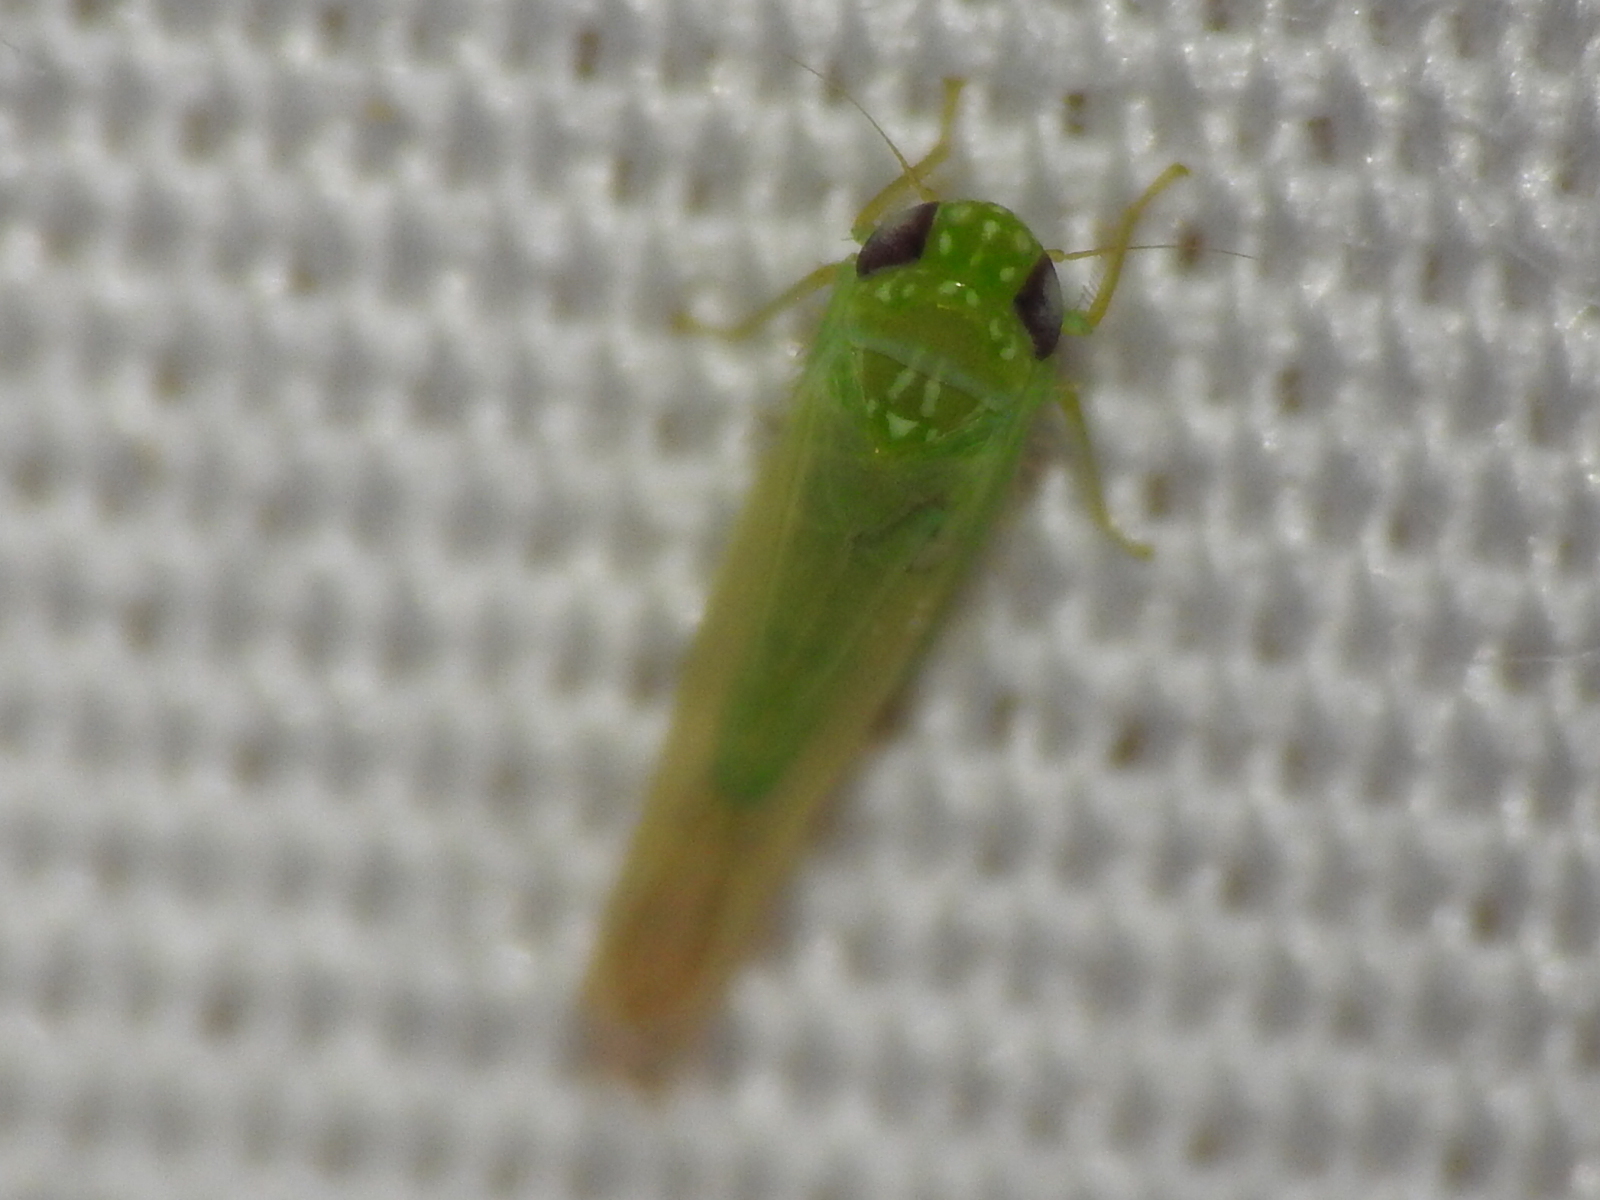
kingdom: Animalia
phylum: Arthropoda
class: Insecta
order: Hemiptera
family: Cicadellidae
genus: Empoasca
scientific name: Empoasca fabae
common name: Potato leafhopper
